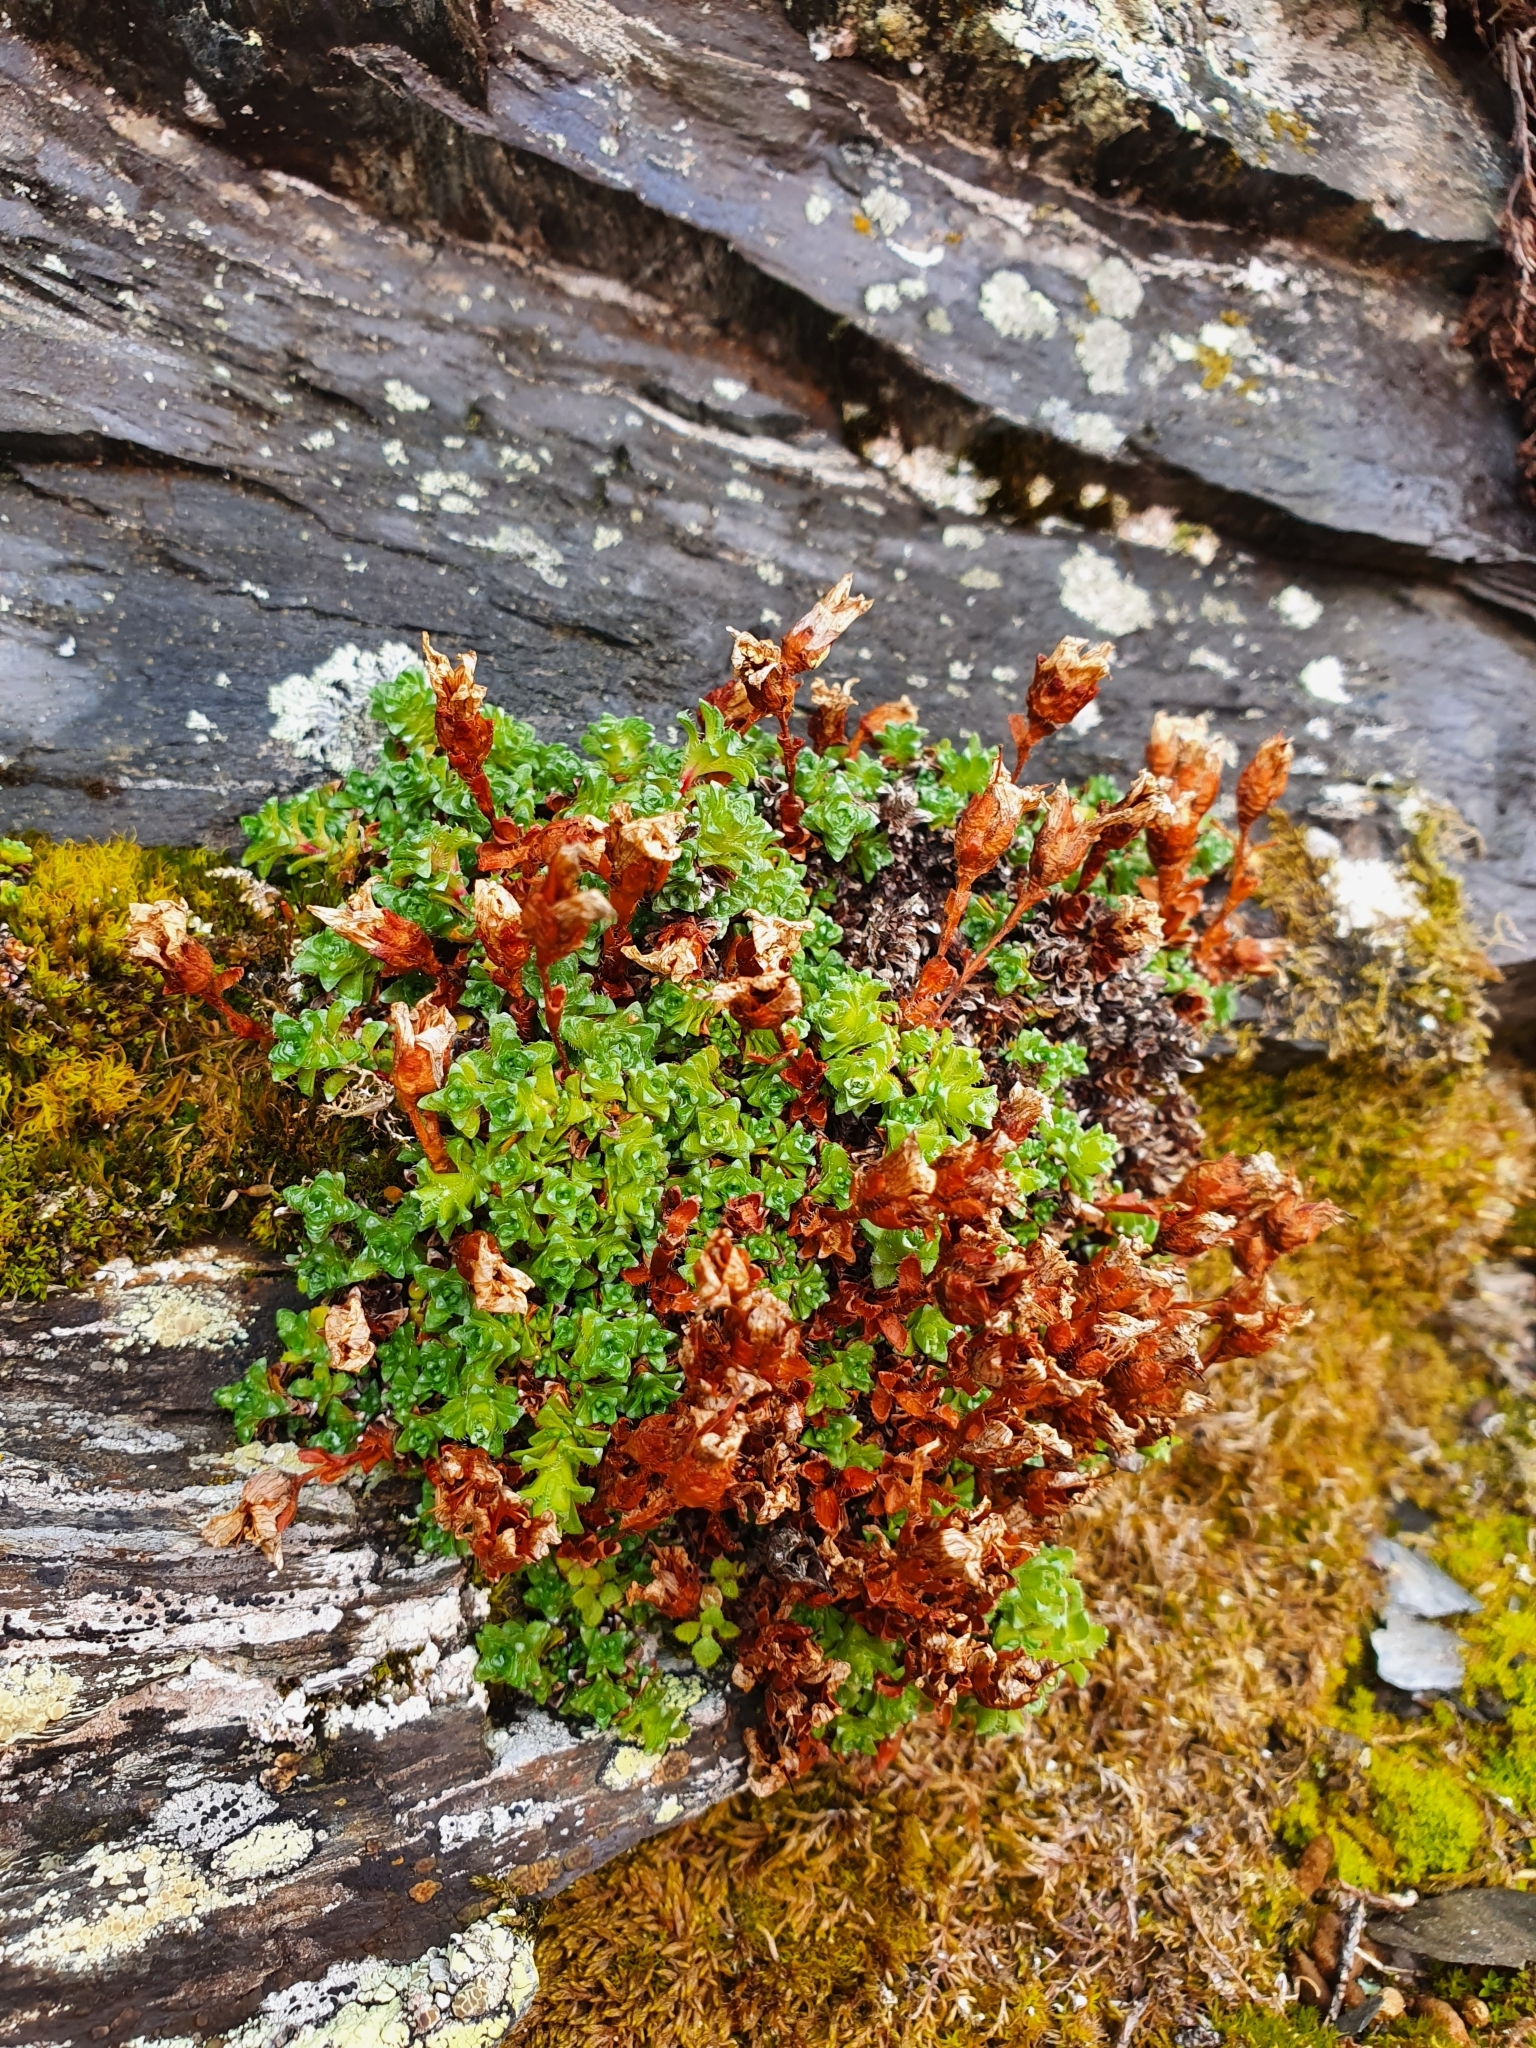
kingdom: Plantae
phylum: Tracheophyta
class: Magnoliopsida
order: Saxifragales
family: Saxifragaceae
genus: Saxifraga
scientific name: Saxifraga oppositifolia
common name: Purple saxifrage
